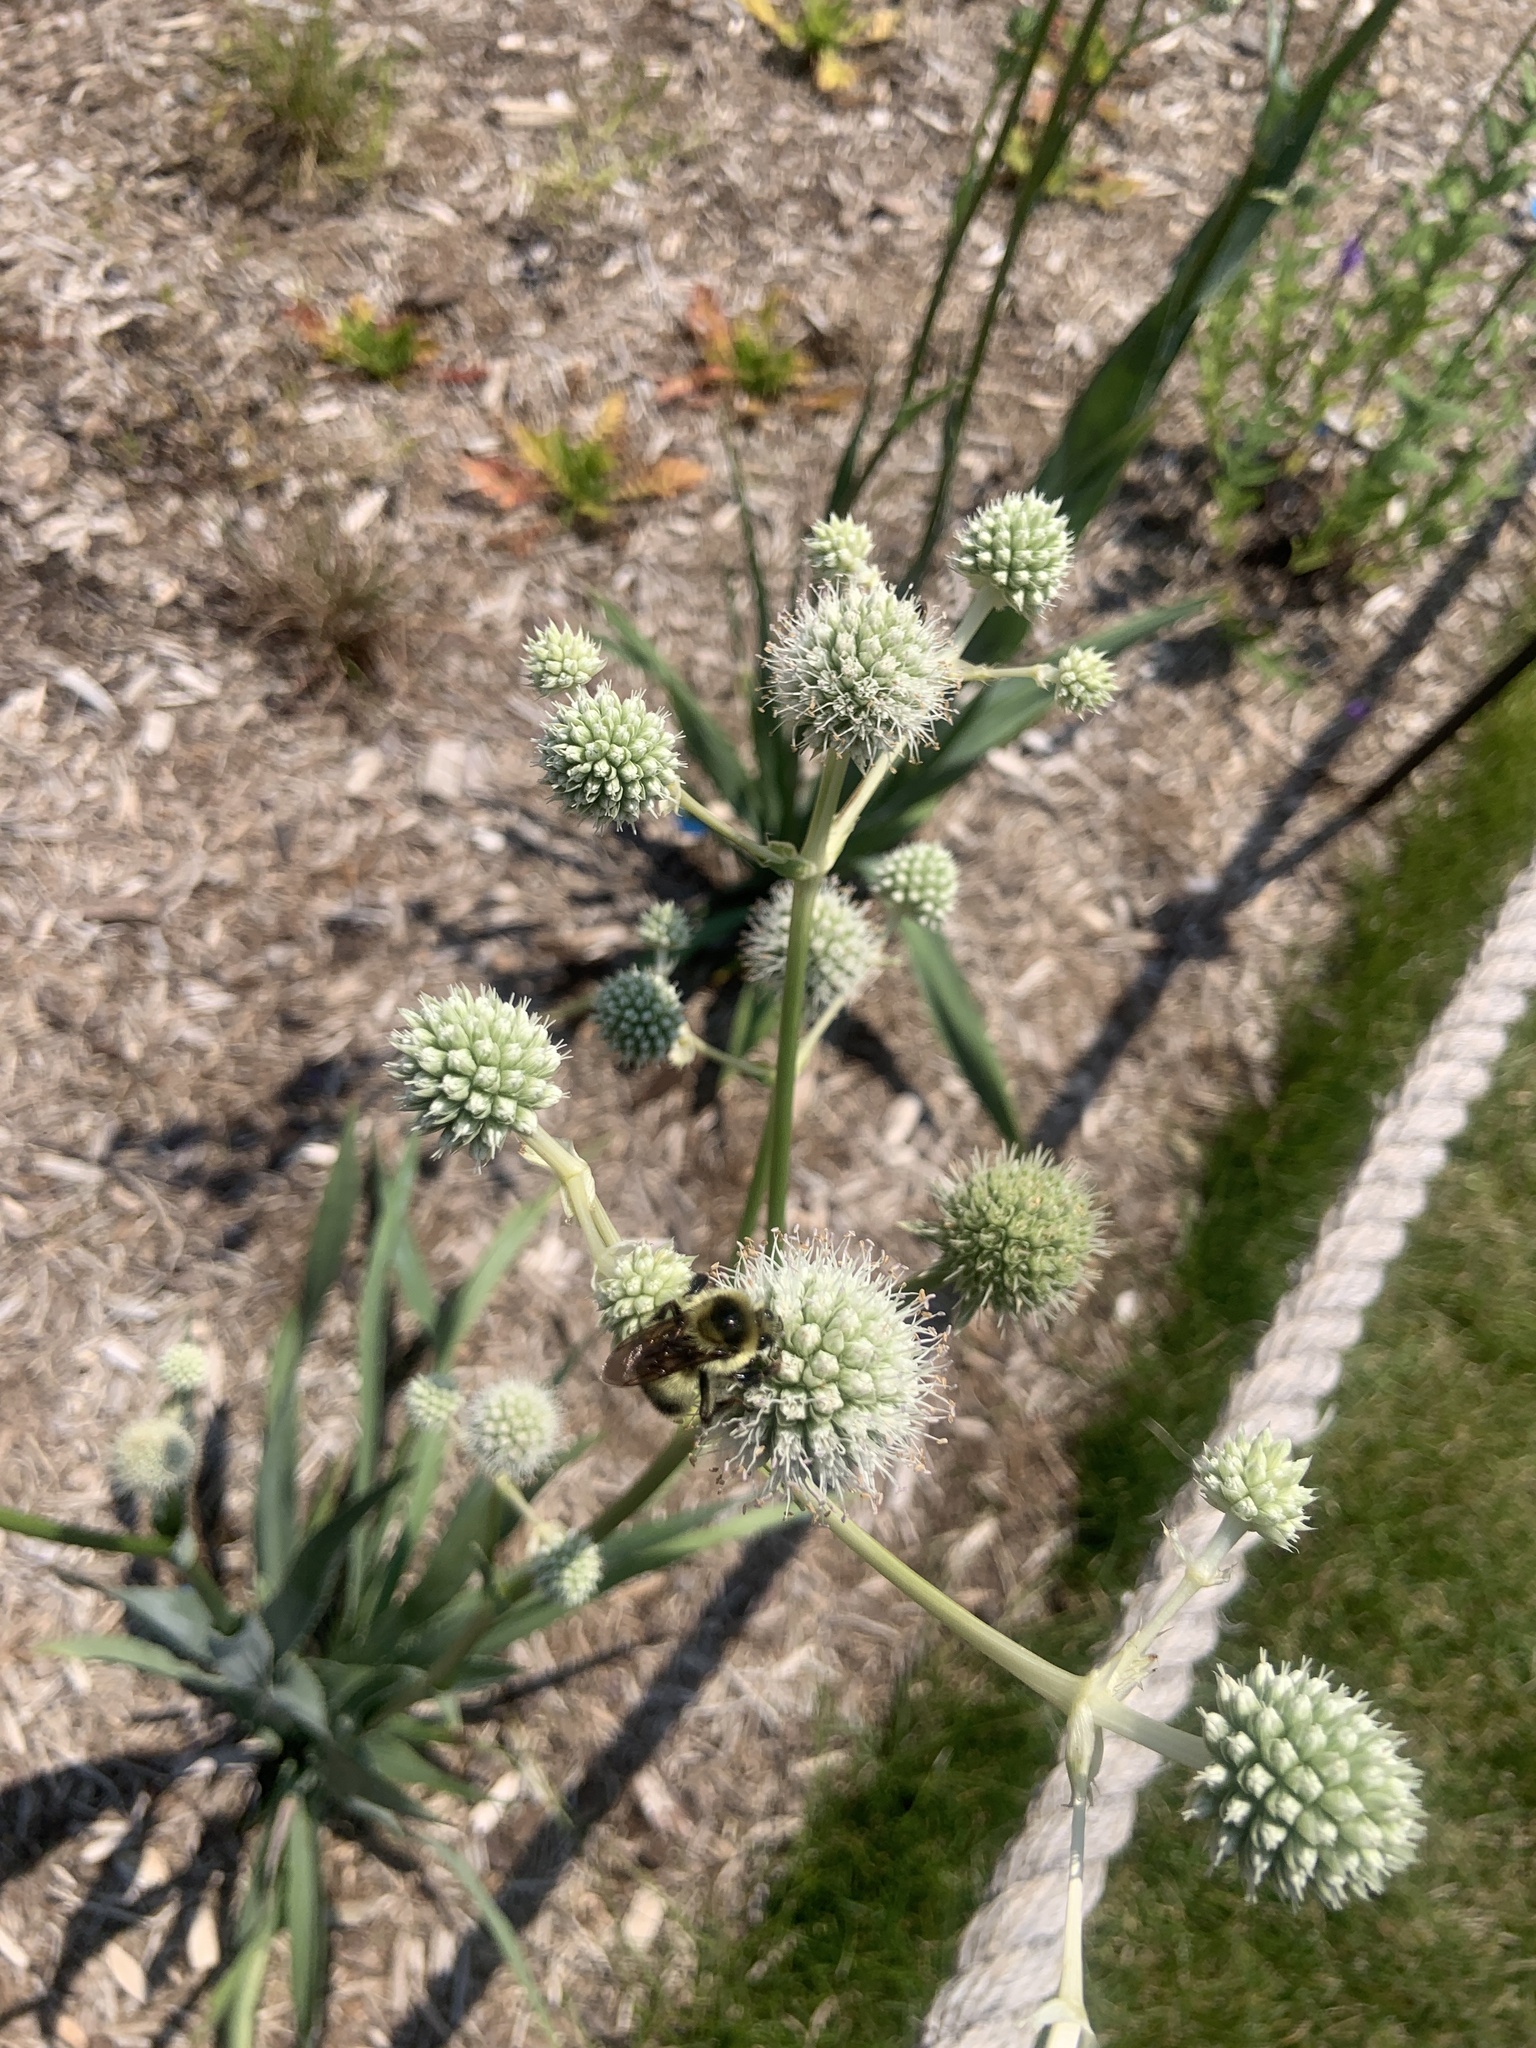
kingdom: Animalia
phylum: Arthropoda
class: Insecta
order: Hymenoptera
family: Apidae
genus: Bombus
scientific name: Bombus rufocinctus
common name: Red-belted bumble bee
